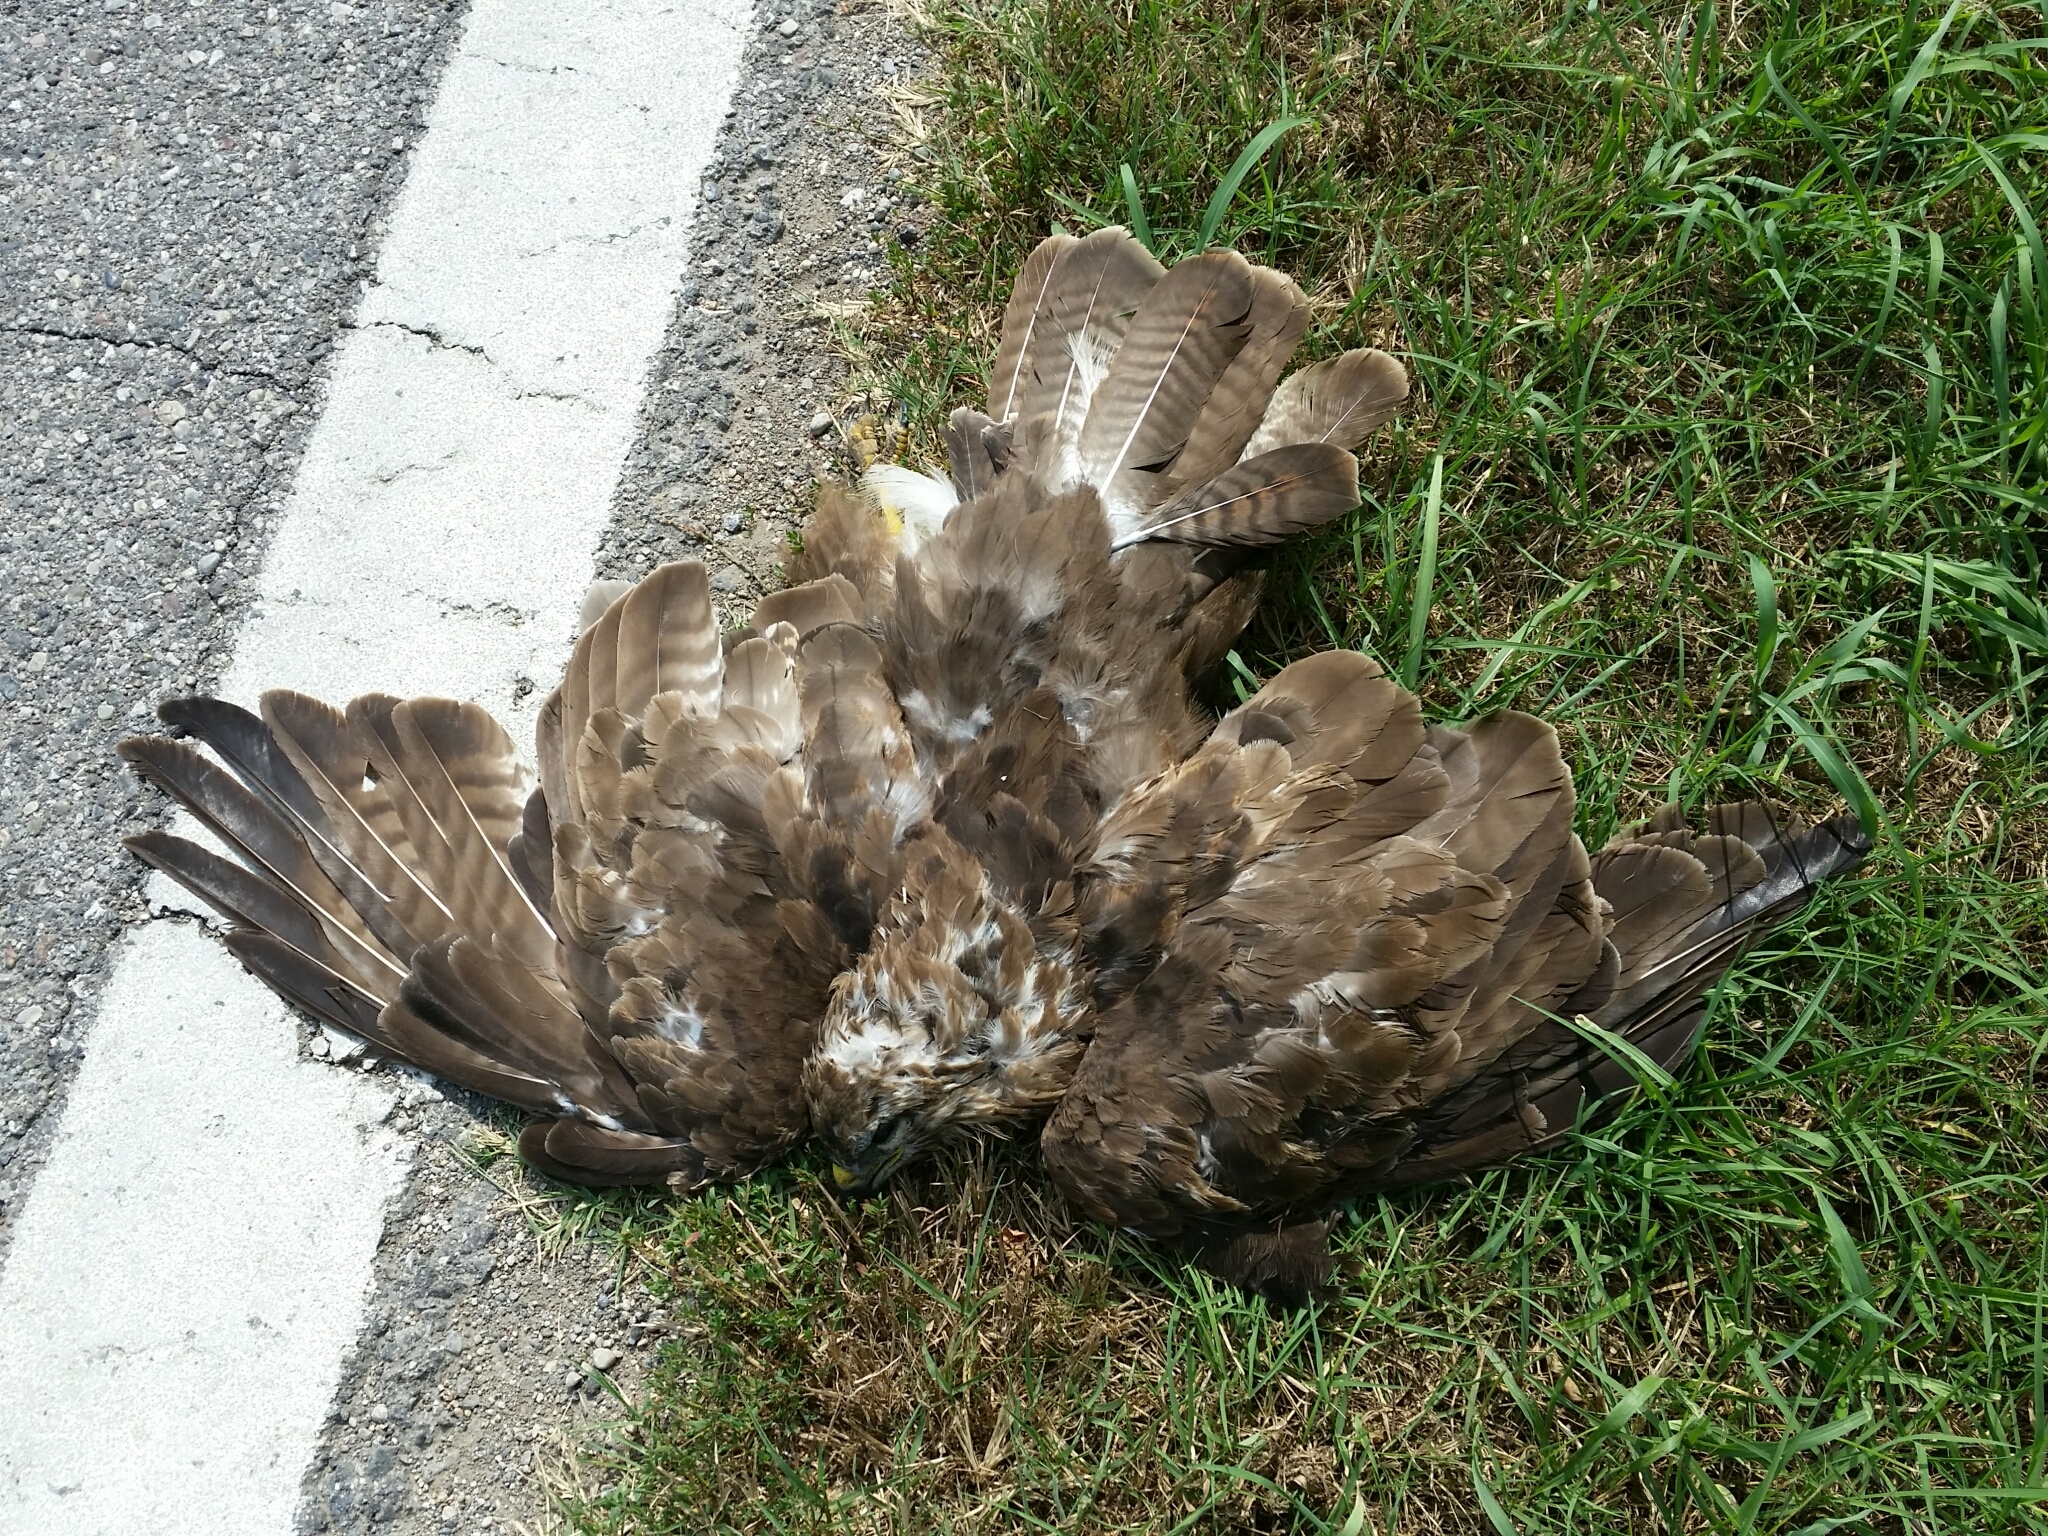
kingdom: Animalia
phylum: Chordata
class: Aves
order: Accipitriformes
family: Accipitridae
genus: Buteo
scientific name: Buteo buteo
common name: Common buzzard
